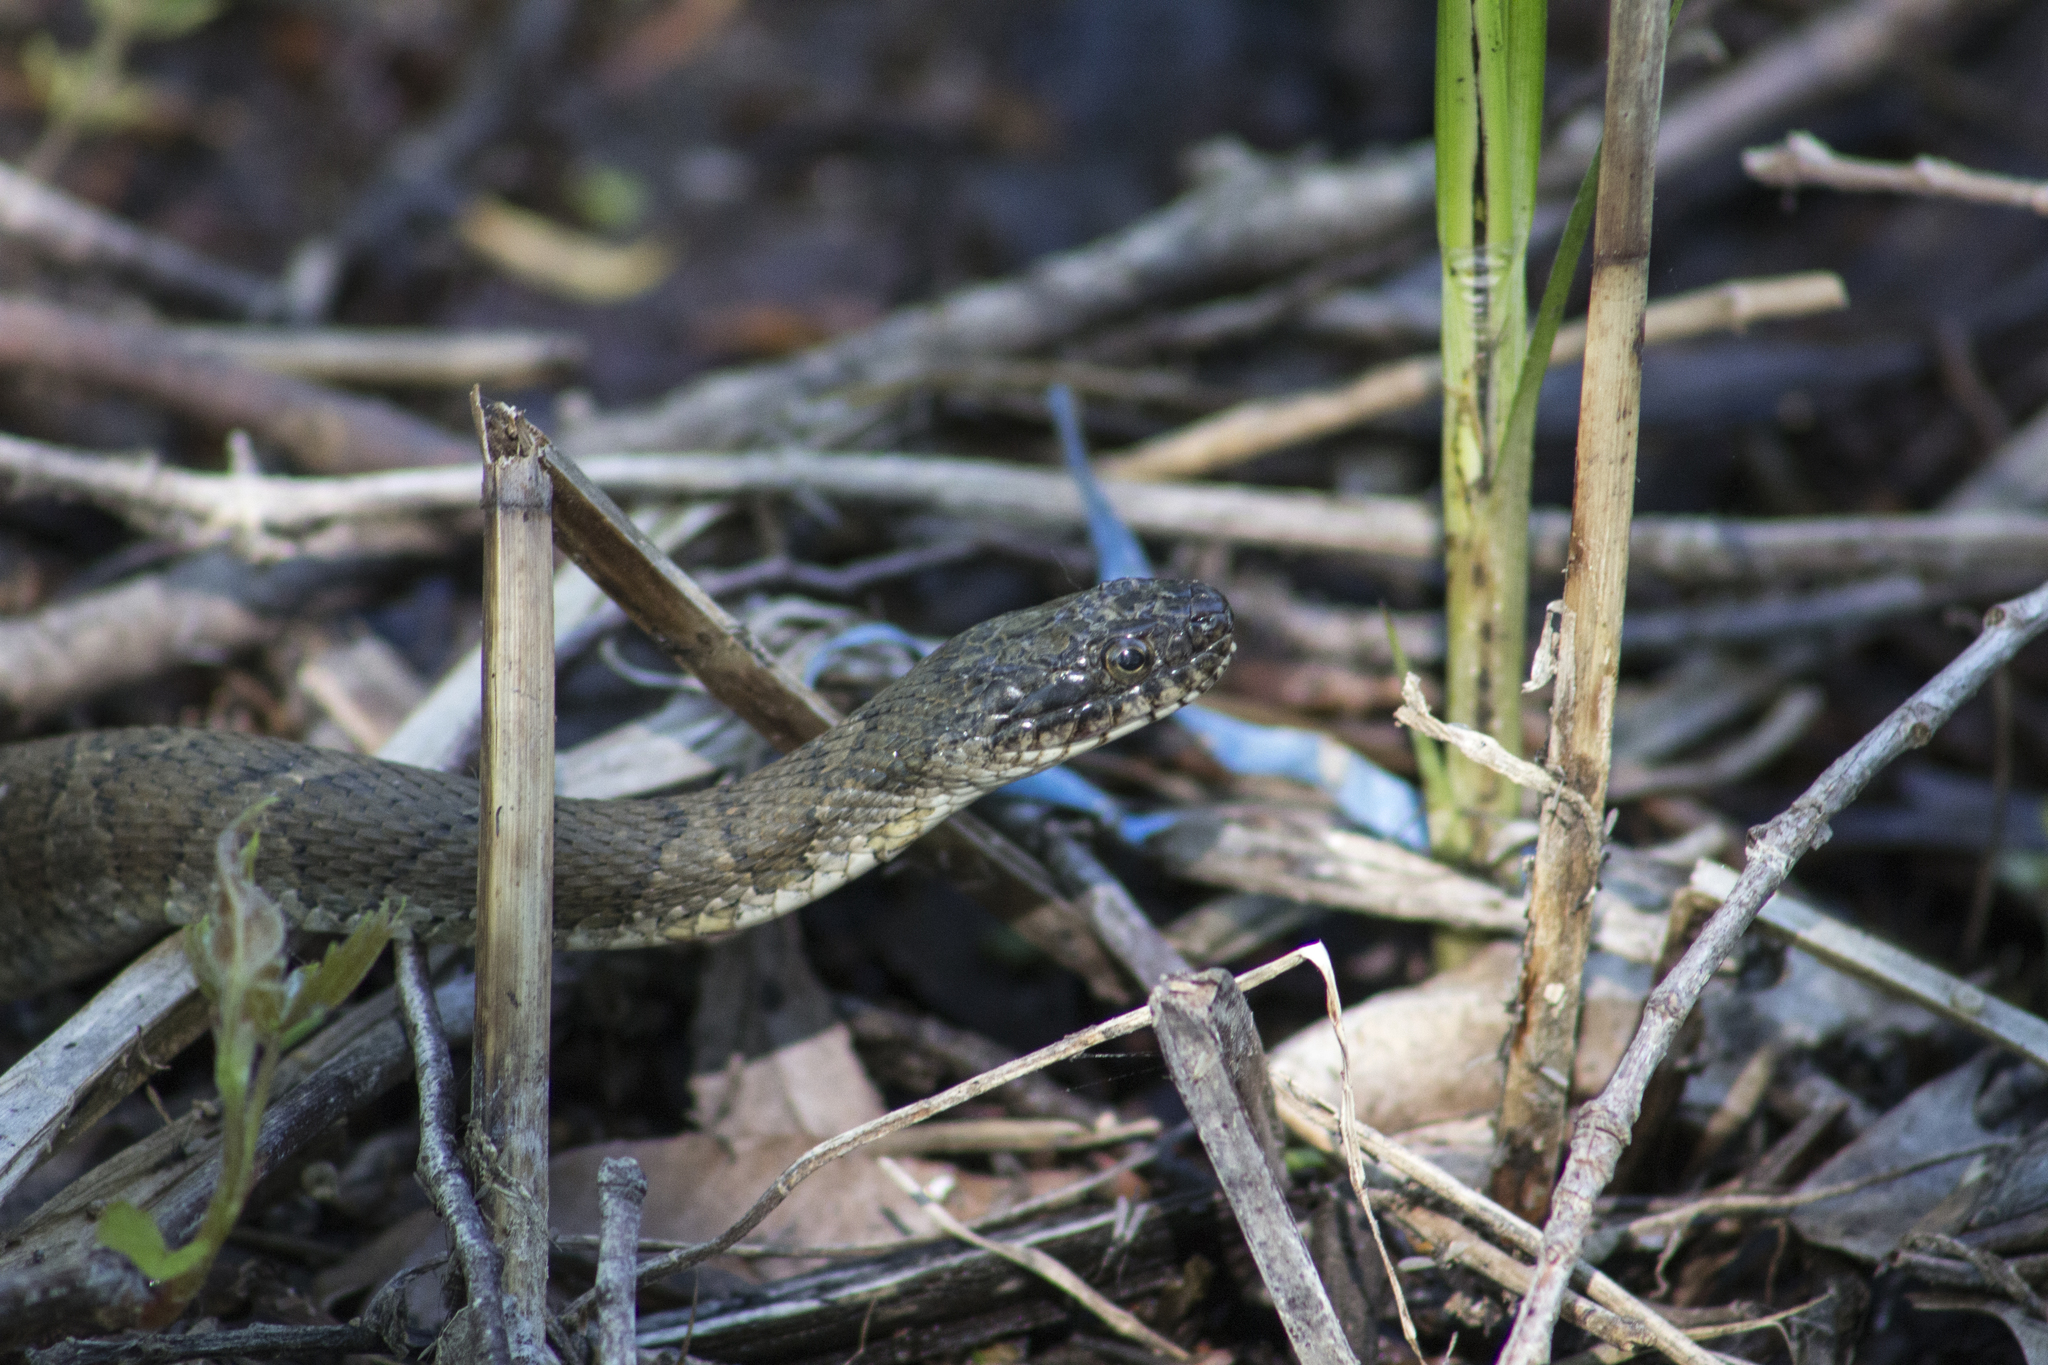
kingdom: Animalia
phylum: Chordata
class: Squamata
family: Colubridae
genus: Nerodia
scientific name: Nerodia sipedon
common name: Northern water snake
